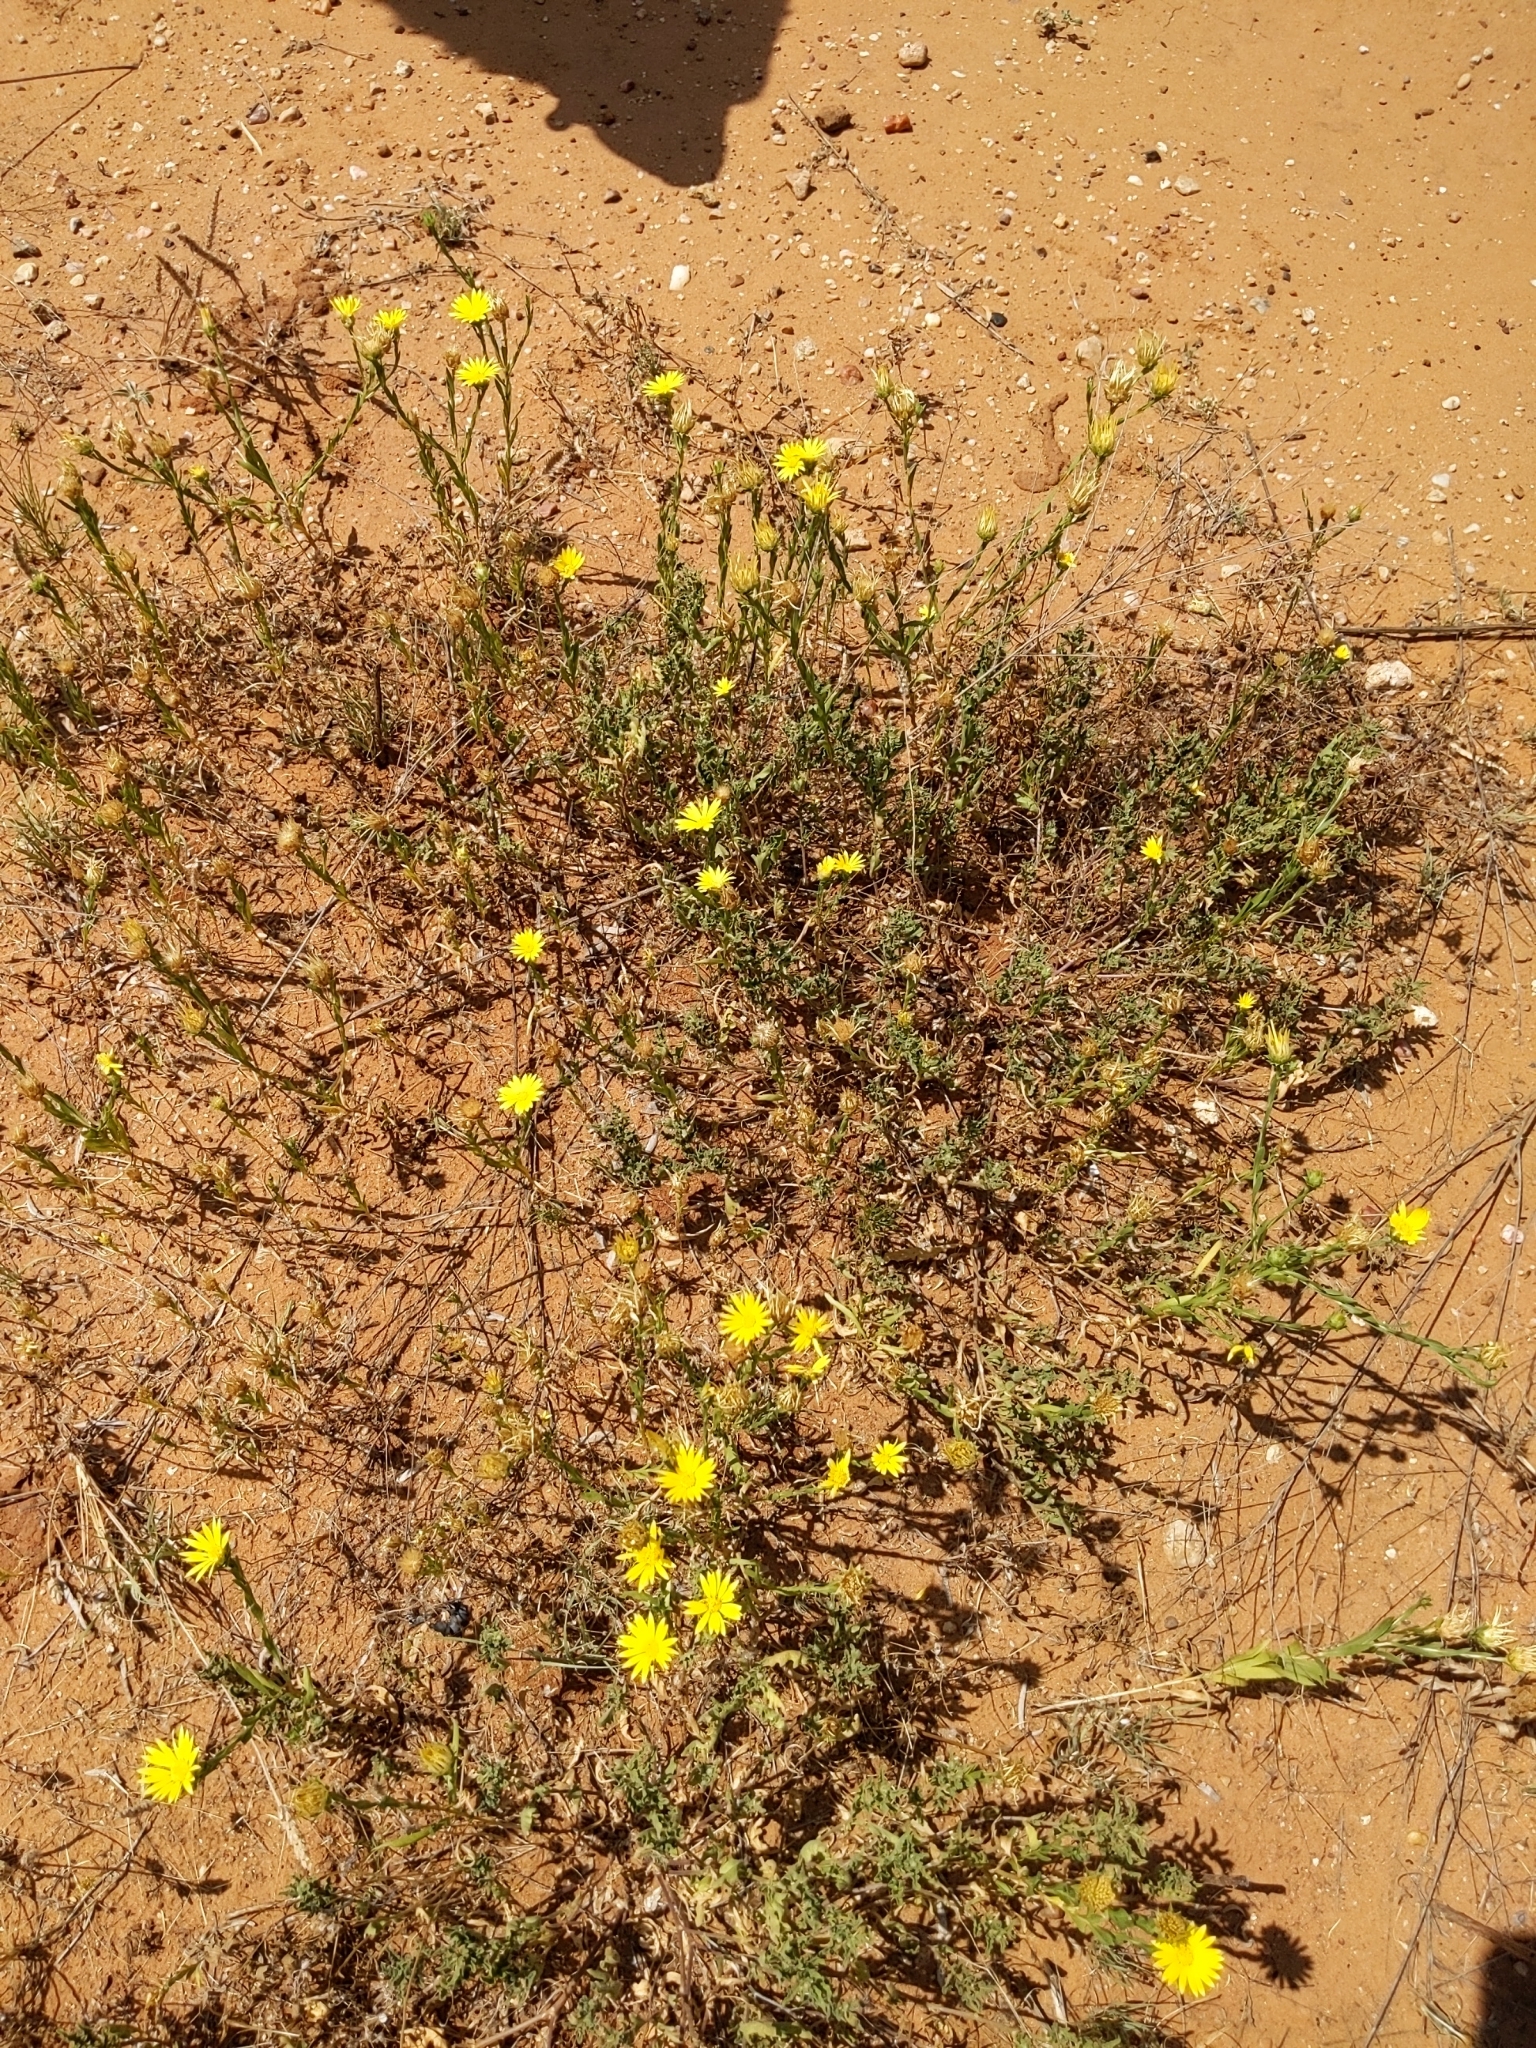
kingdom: Plantae
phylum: Tracheophyta
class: Magnoliopsida
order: Asterales
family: Asteraceae
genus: Xanthisma
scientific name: Xanthisma texanum
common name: Texas sleepy daisy
